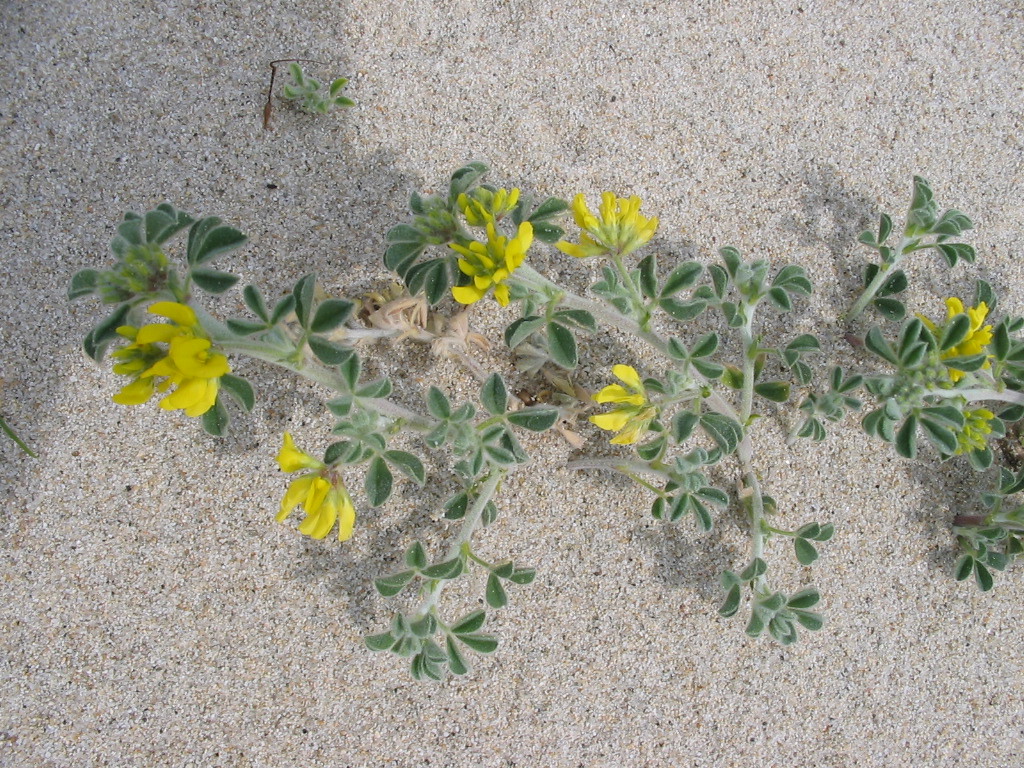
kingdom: Plantae
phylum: Tracheophyta
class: Magnoliopsida
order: Fabales
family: Fabaceae
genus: Medicago
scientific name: Medicago marina
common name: Sea medick
